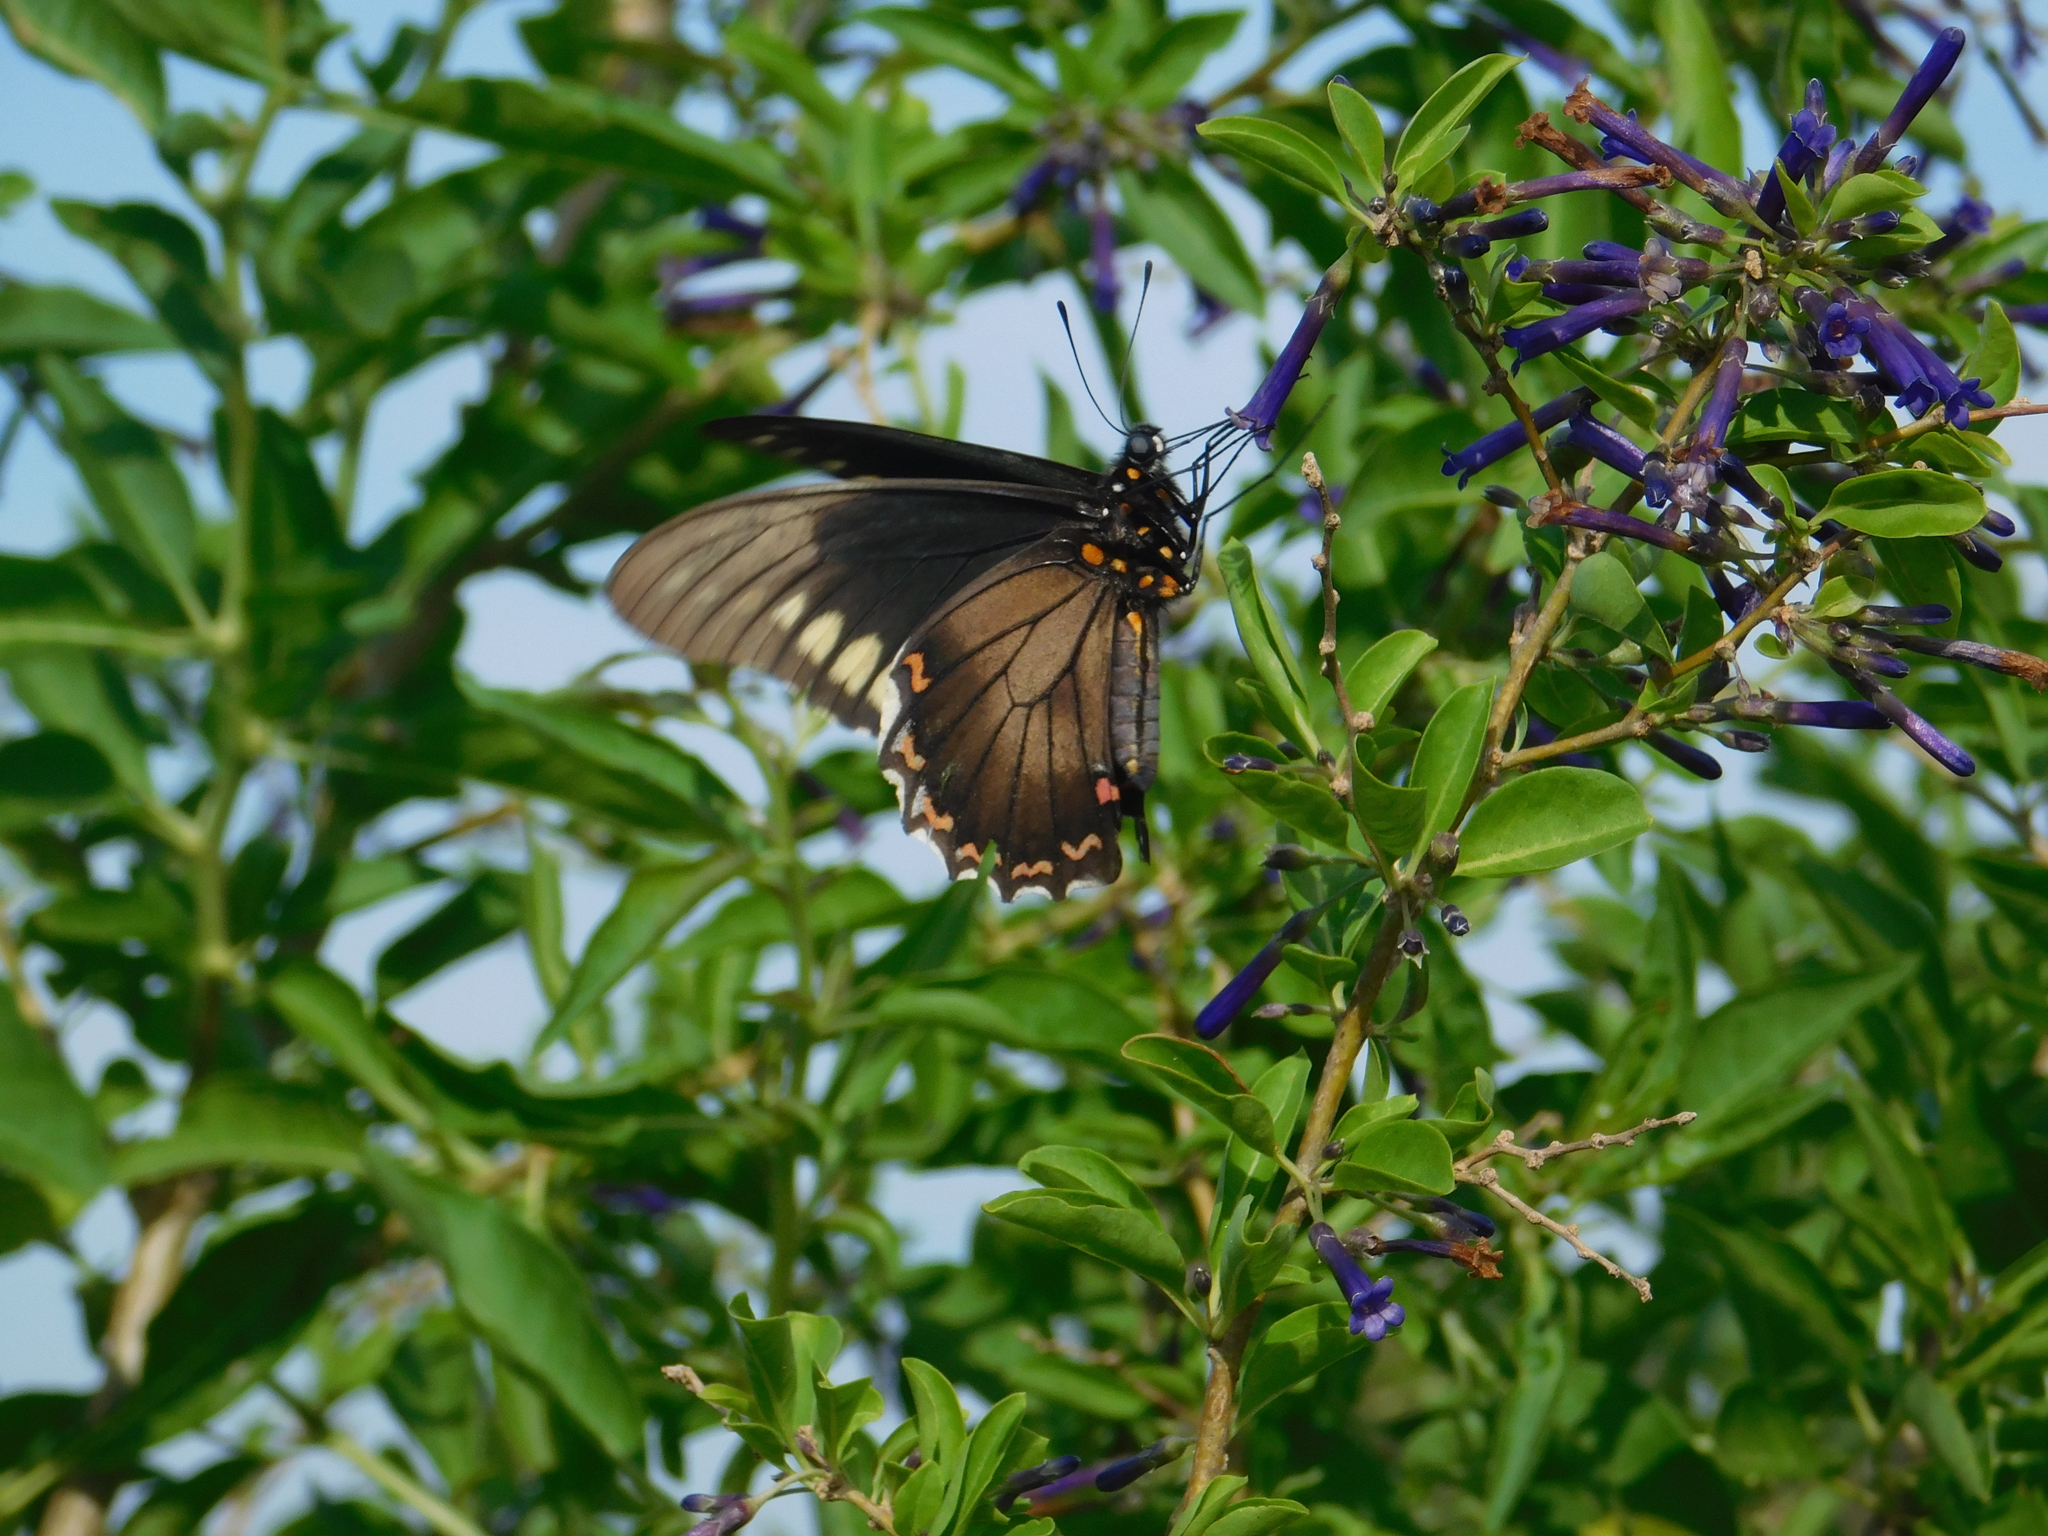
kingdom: Animalia
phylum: Arthropoda
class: Insecta
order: Lepidoptera
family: Papilionidae
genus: Battus
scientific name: Battus polydamas
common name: Polydamas swallowtail
